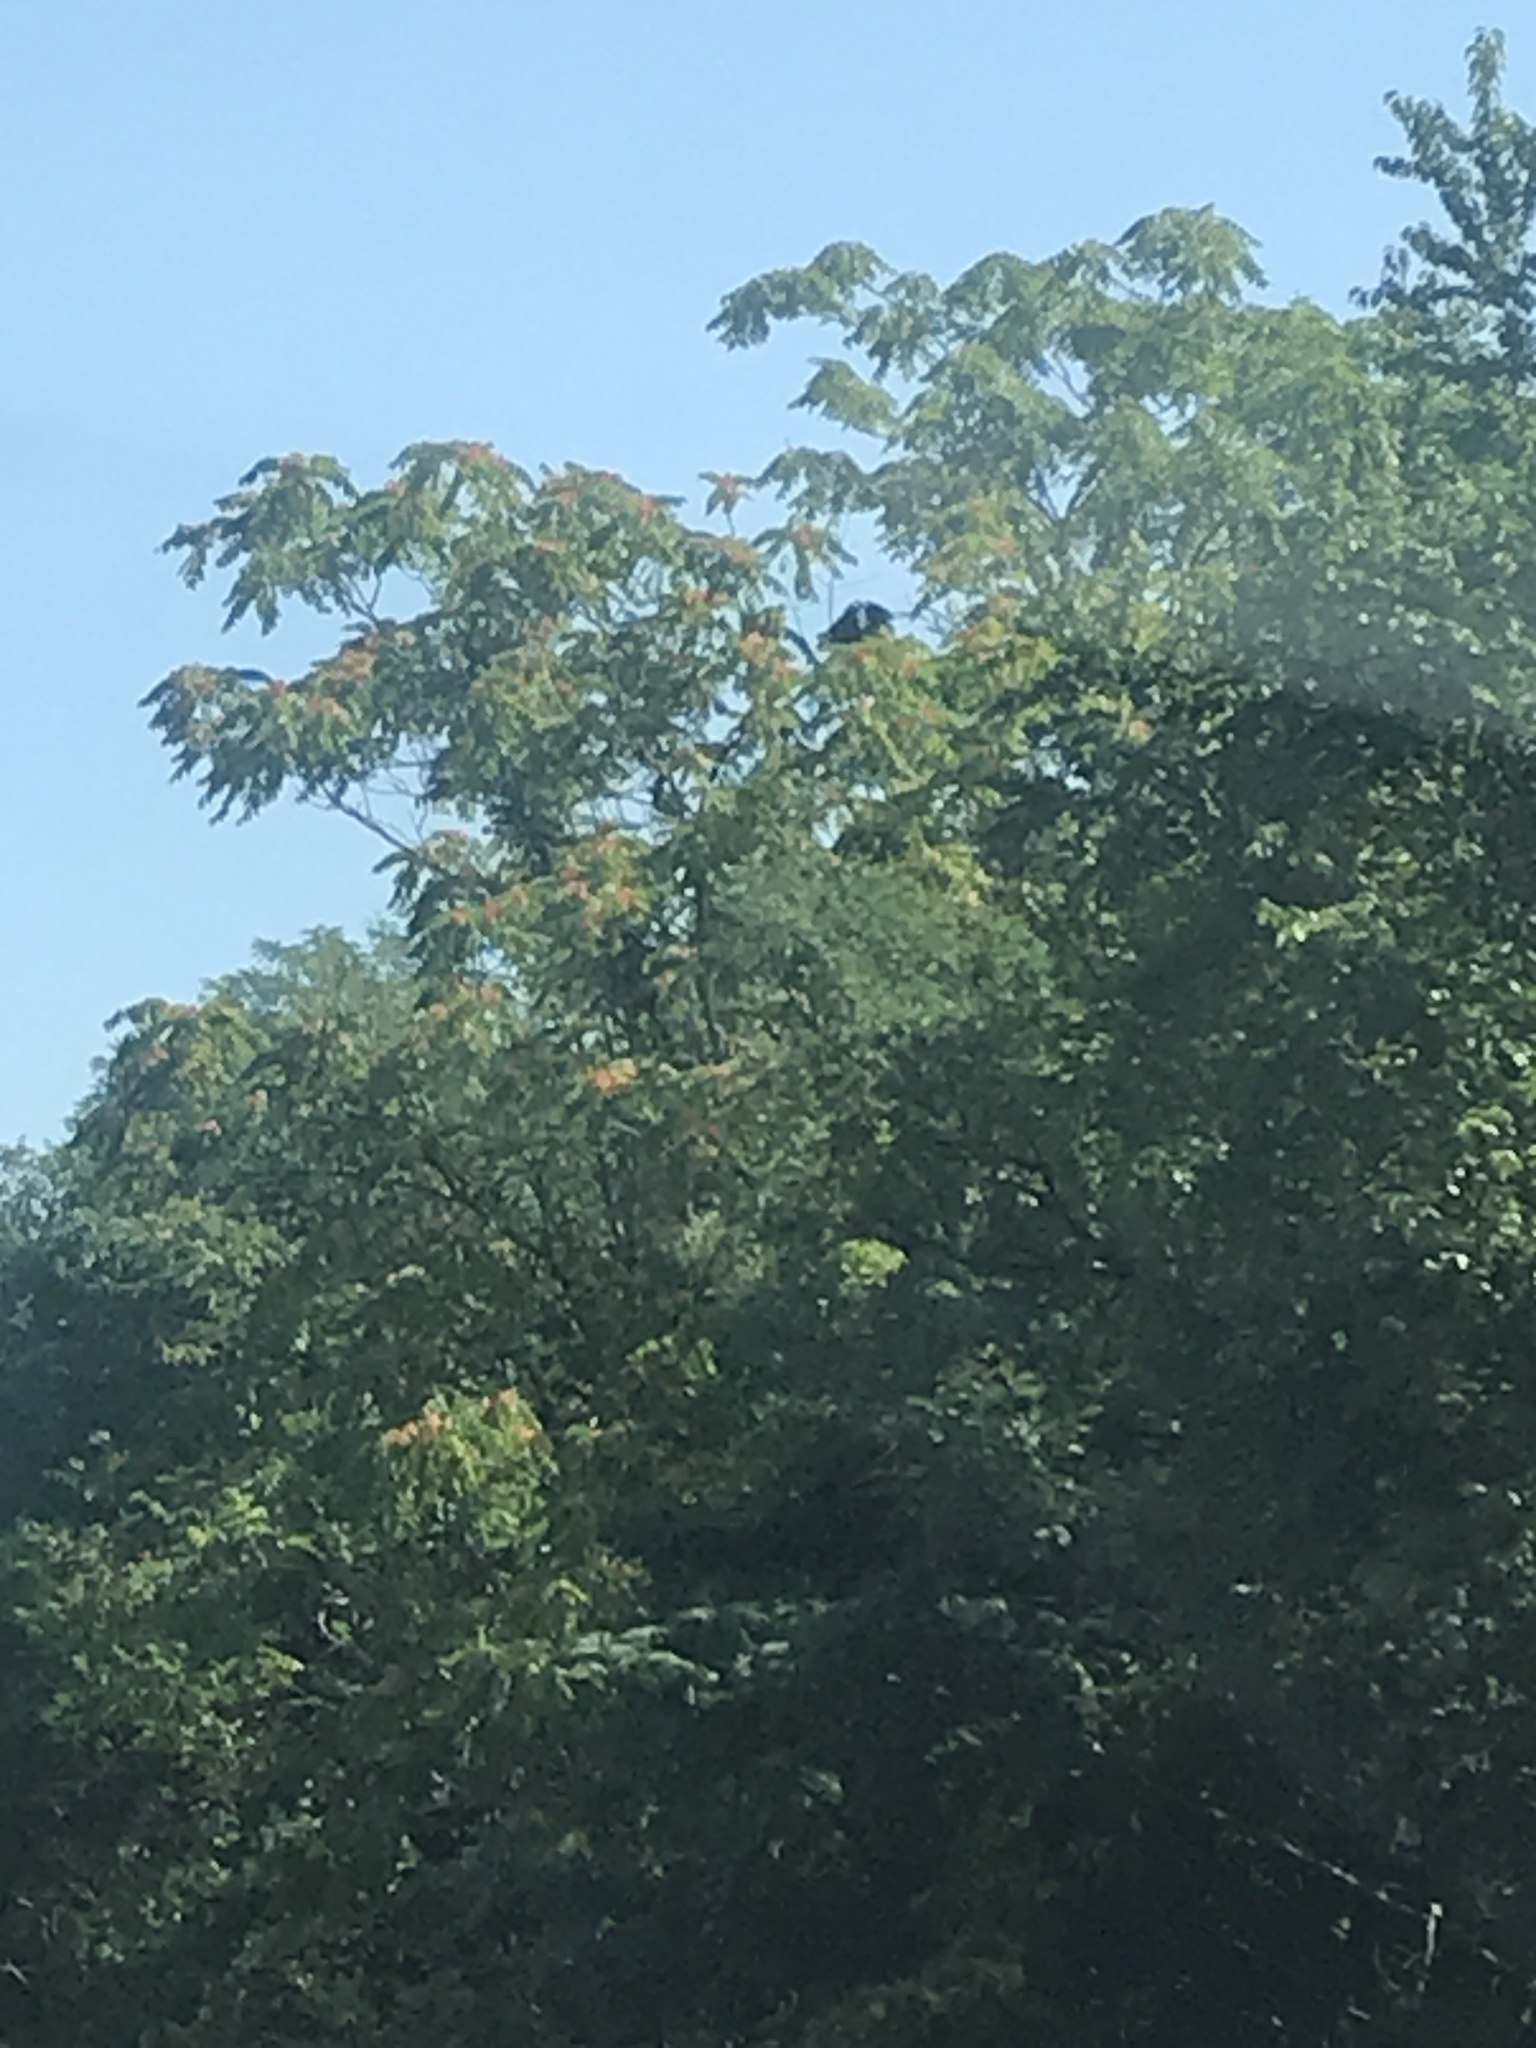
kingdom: Plantae
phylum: Tracheophyta
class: Magnoliopsida
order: Sapindales
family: Simaroubaceae
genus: Ailanthus
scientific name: Ailanthus altissima
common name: Tree-of-heaven
